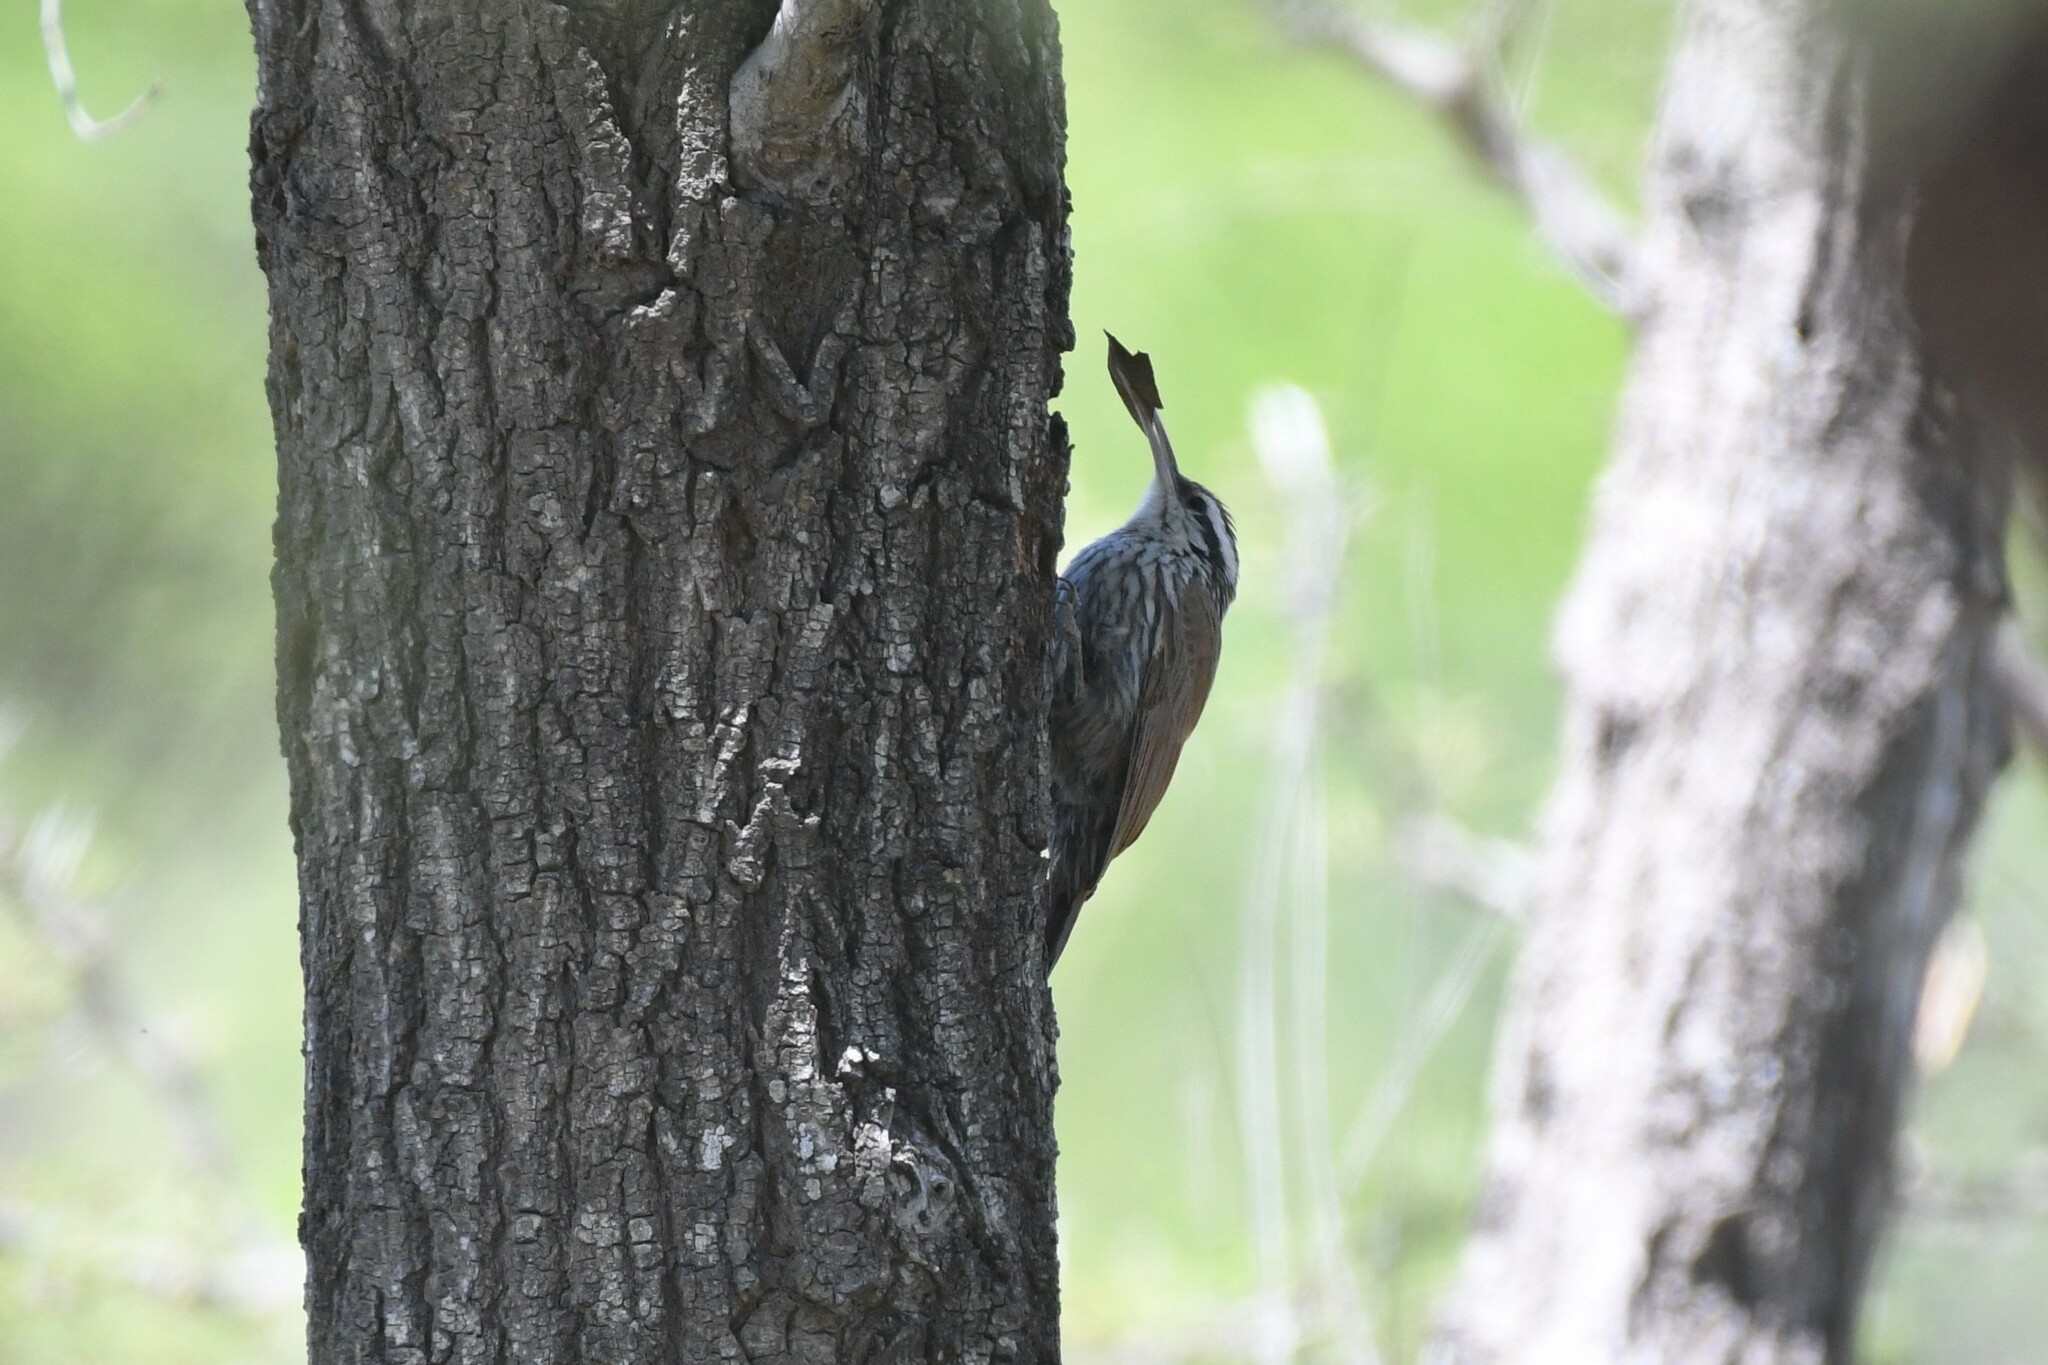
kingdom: Animalia
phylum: Chordata
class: Aves
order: Passeriformes
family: Furnariidae
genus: Lepidocolaptes
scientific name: Lepidocolaptes angustirostris
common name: Narrow-billed woodcreeper
